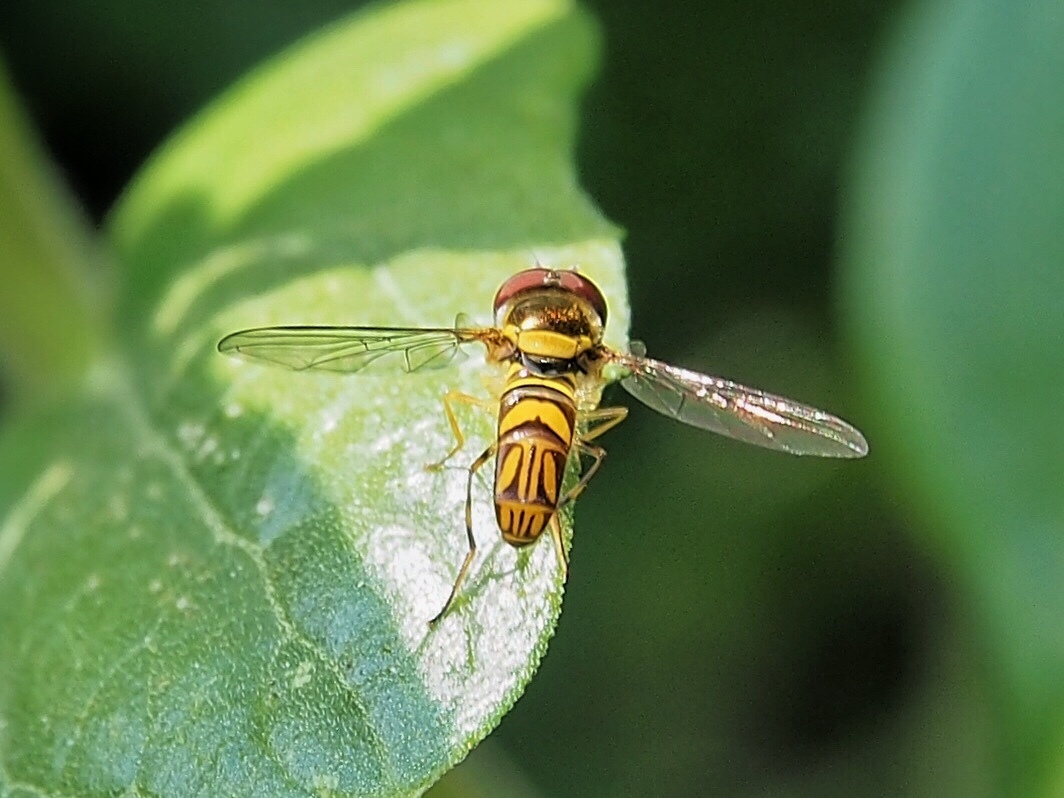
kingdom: Animalia
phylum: Arthropoda
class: Insecta
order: Diptera
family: Syrphidae
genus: Allograpta
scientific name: Allograpta obliqua
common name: Common oblique syrphid
